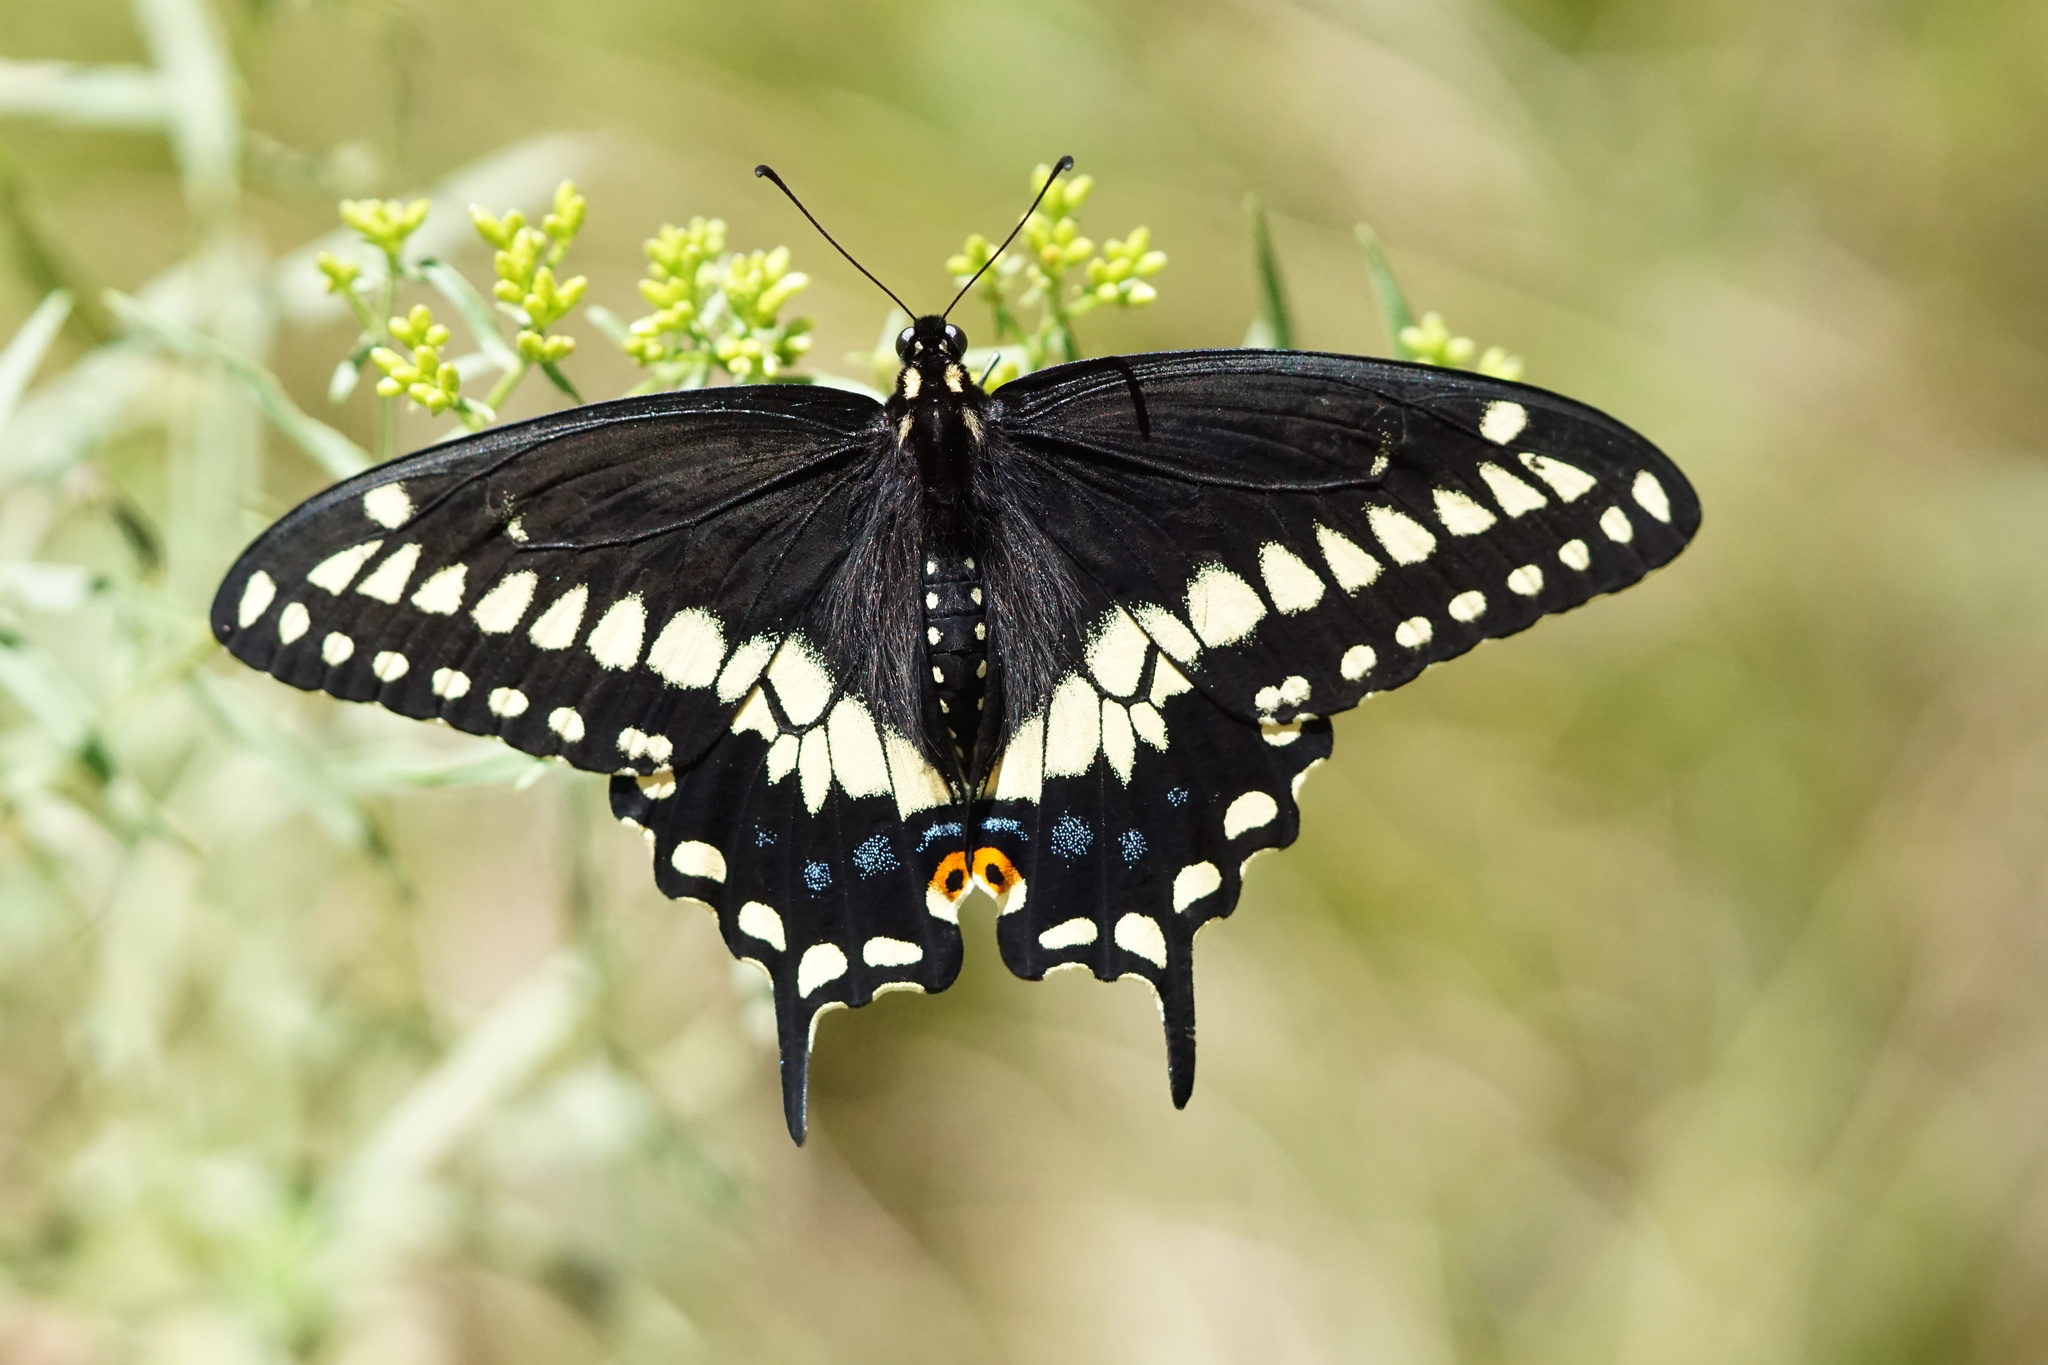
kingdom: Animalia
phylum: Arthropoda
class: Insecta
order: Lepidoptera
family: Papilionidae
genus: Papilio
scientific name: Papilio polyxenes
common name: Black swallowtail
